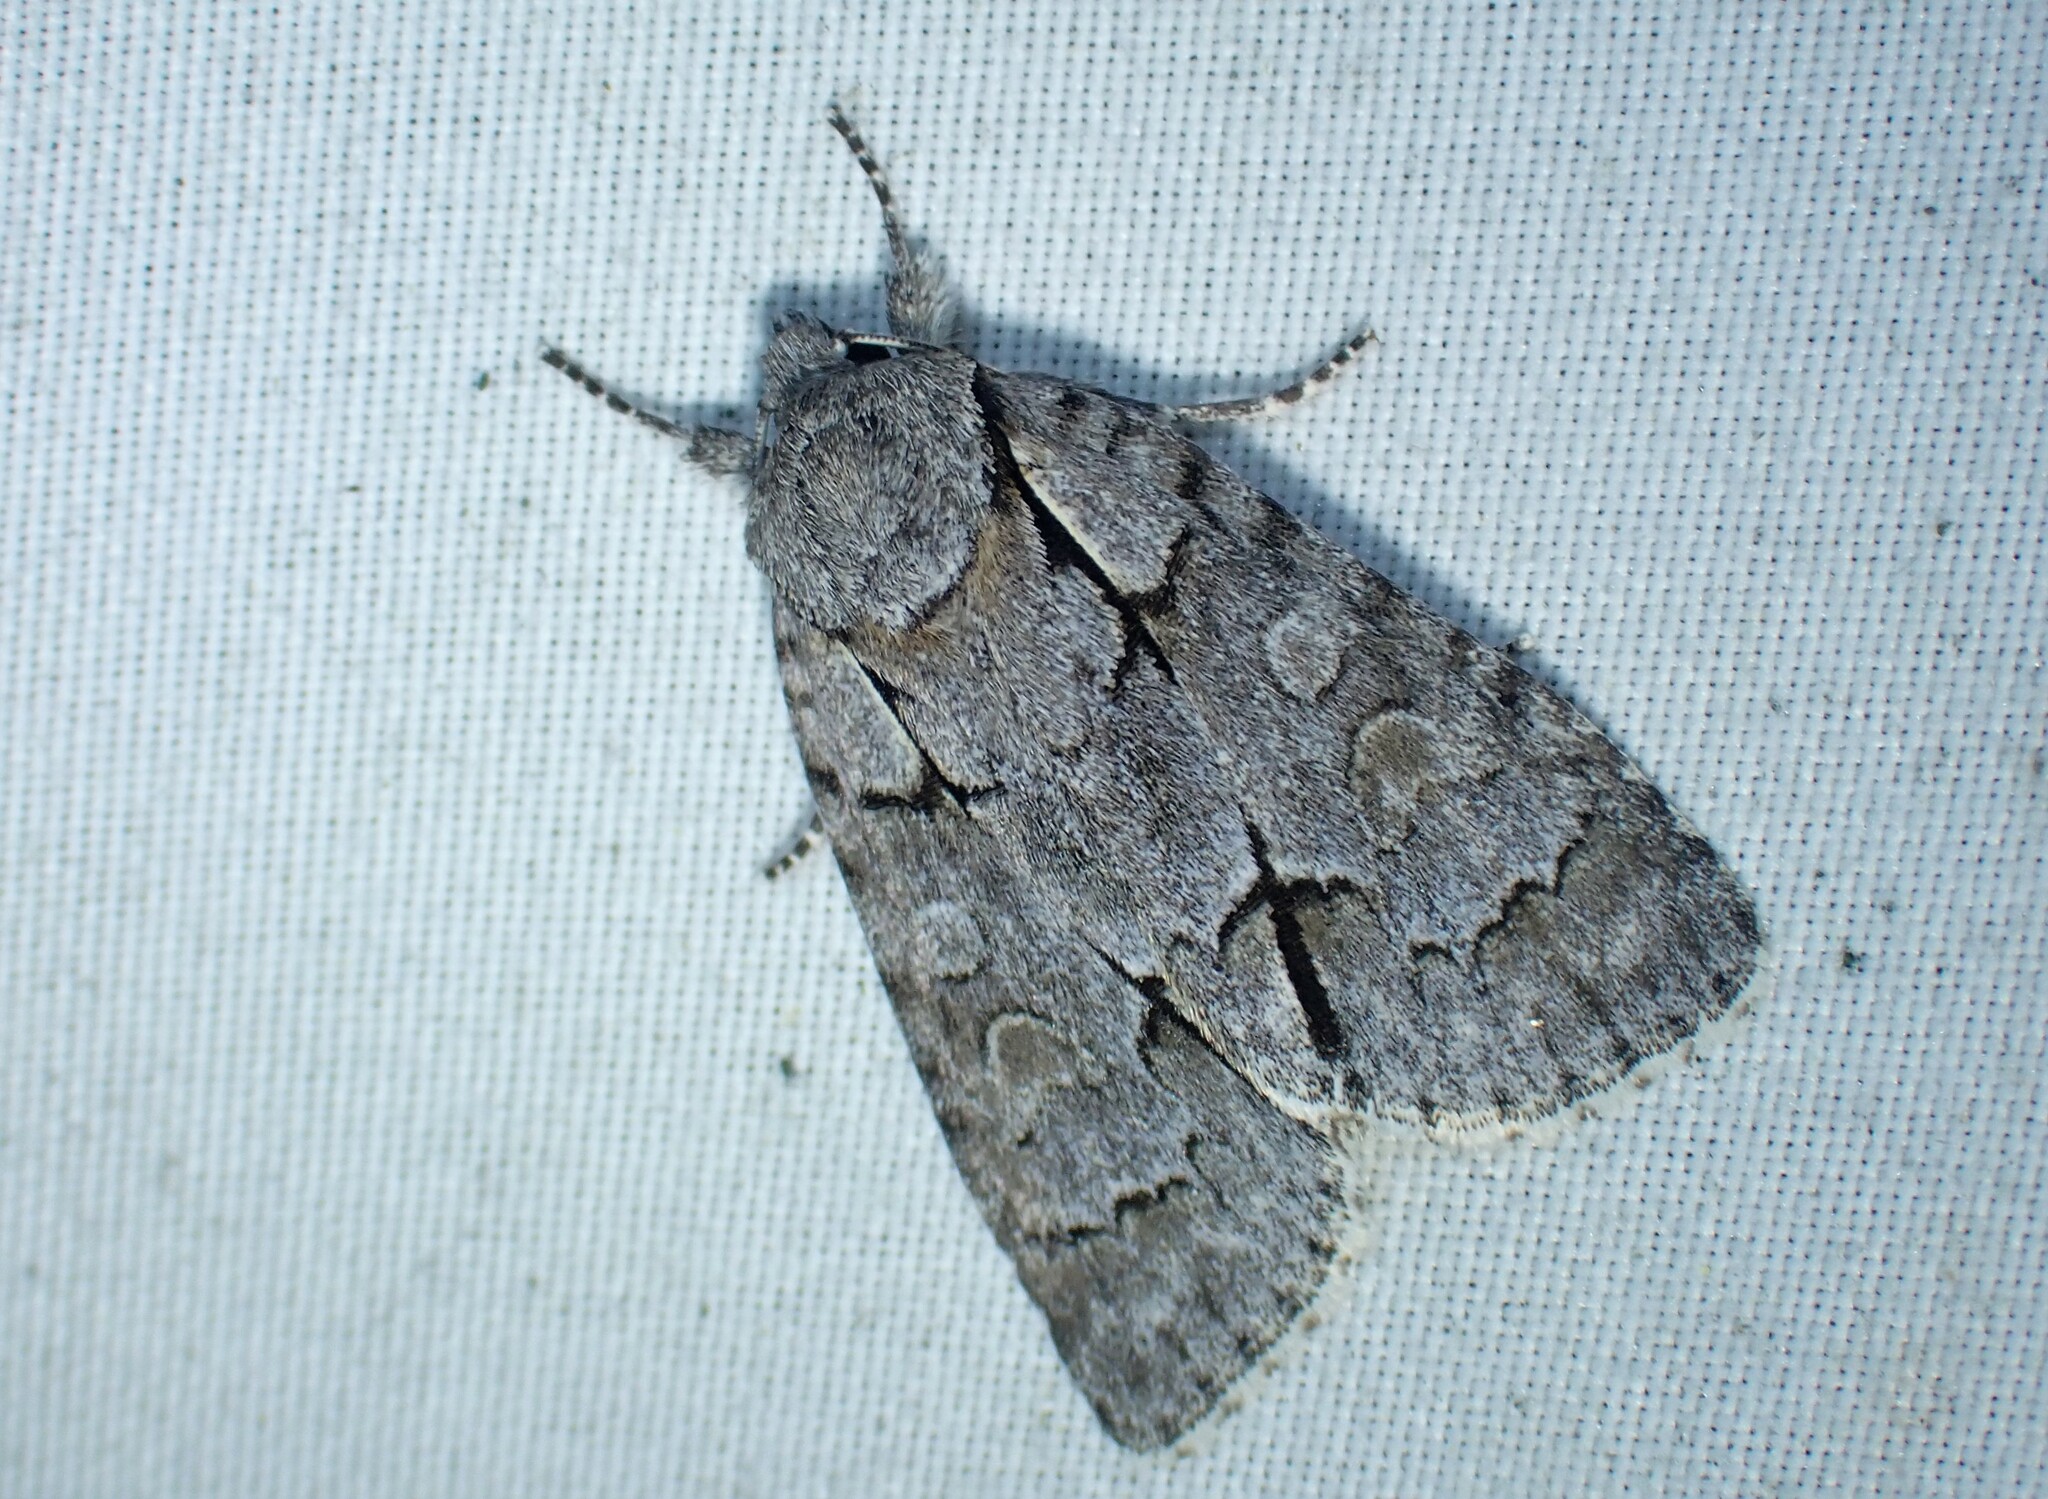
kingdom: Animalia
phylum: Arthropoda
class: Insecta
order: Lepidoptera
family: Noctuidae
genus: Acronicta
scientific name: Acronicta grisea
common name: Gray dagger
